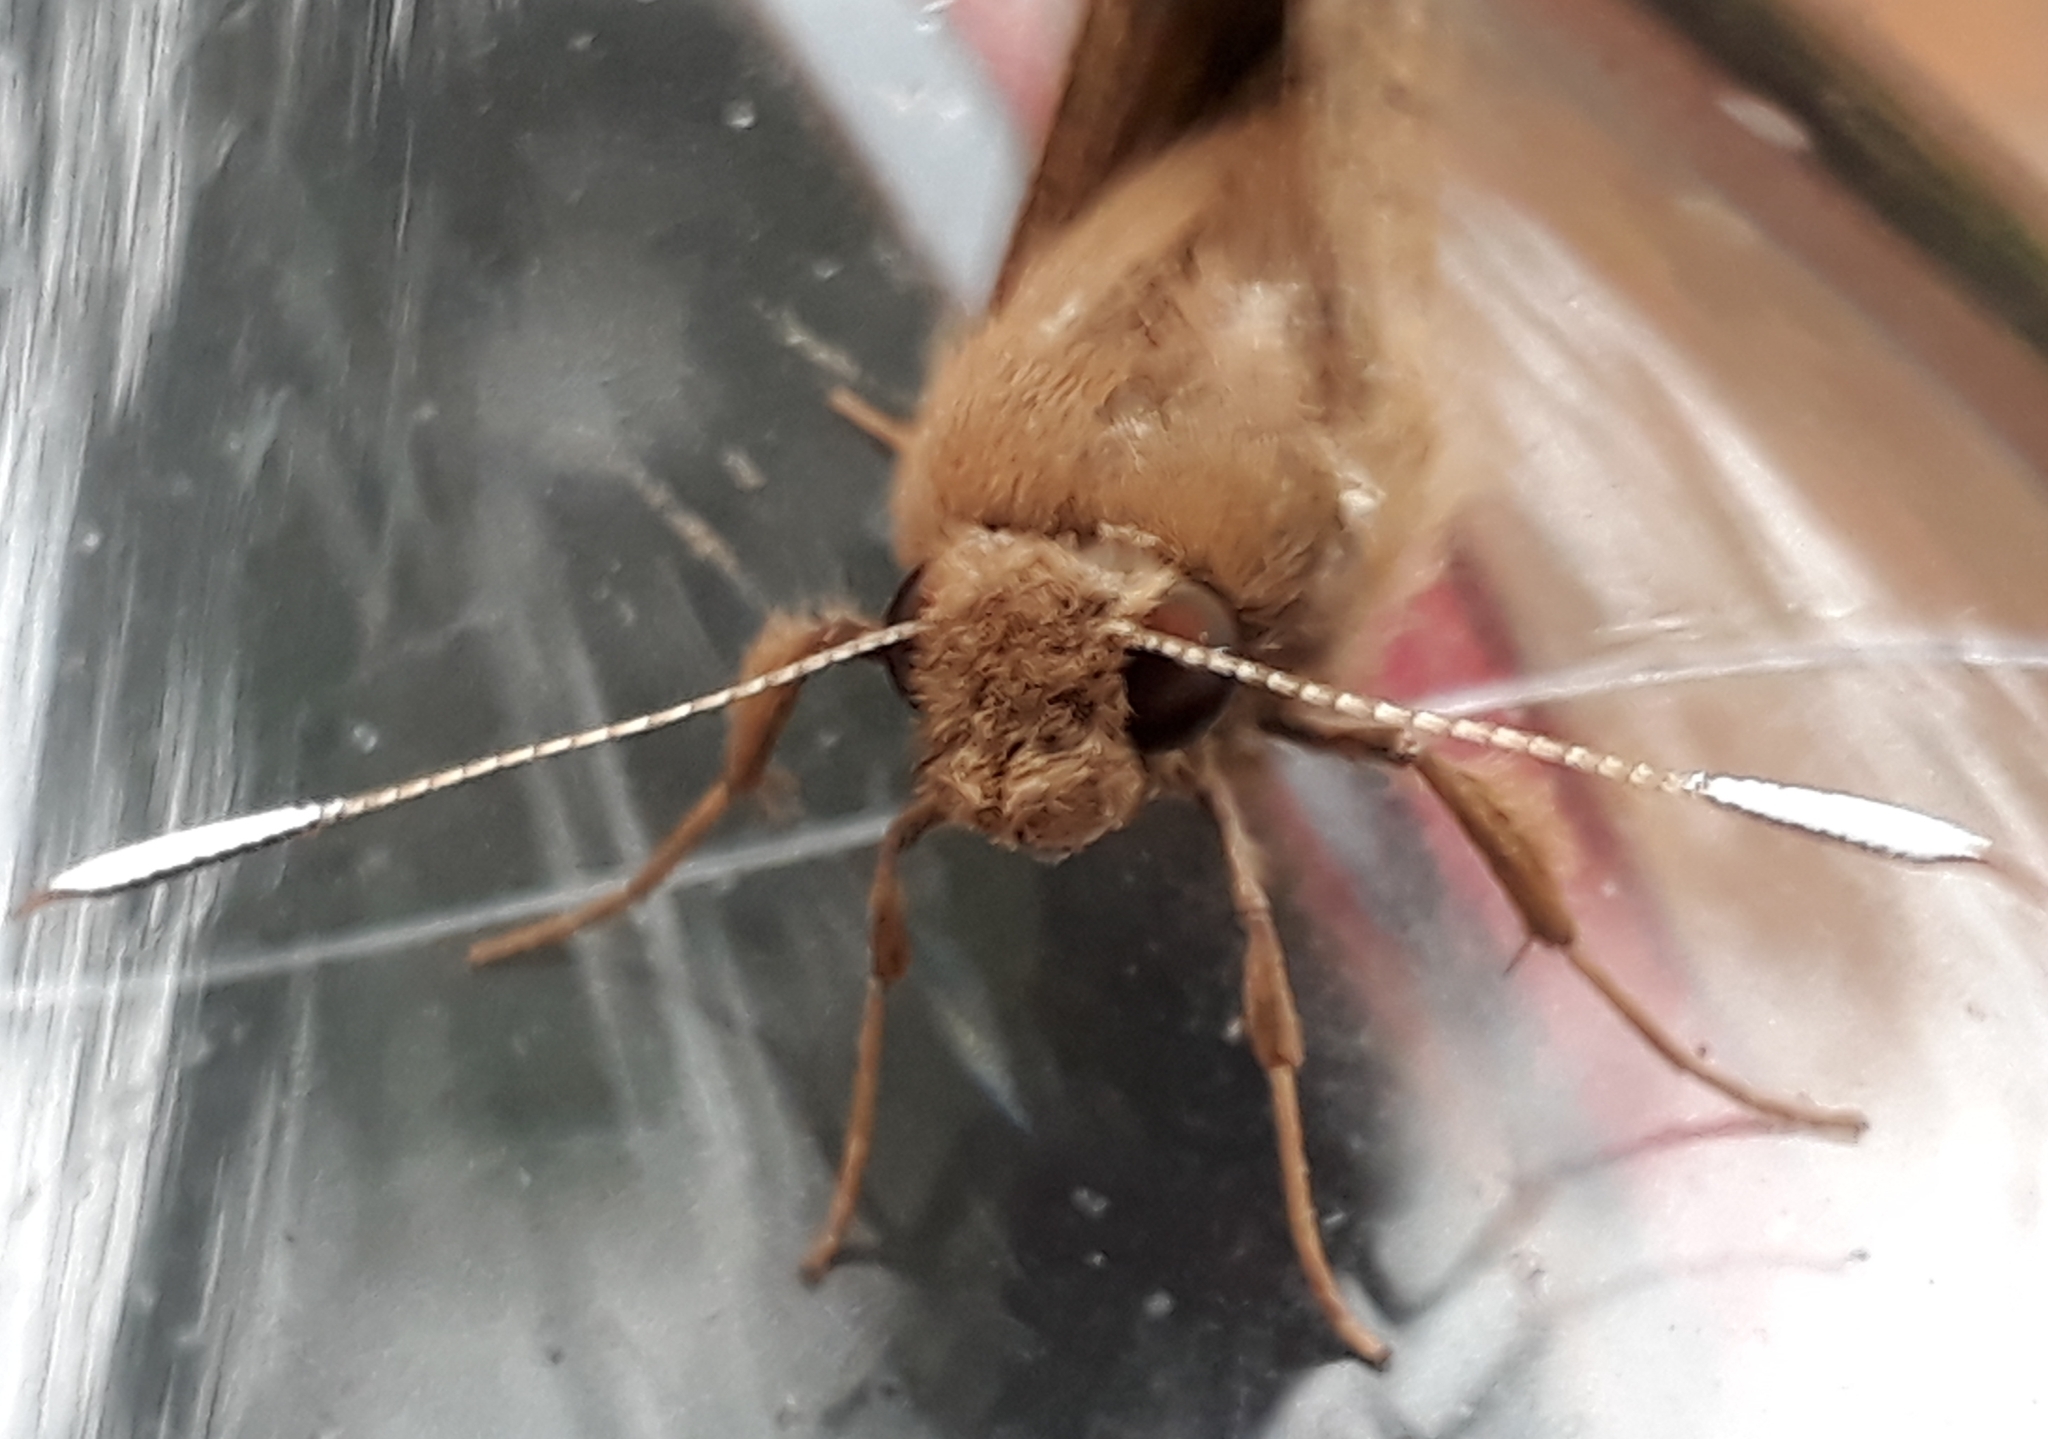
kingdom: Animalia
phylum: Arthropoda
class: Insecta
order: Lepidoptera
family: Hesperiidae
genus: Zophopetes
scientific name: Zophopetes dysmephila
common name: Palm-tree nightfighter
